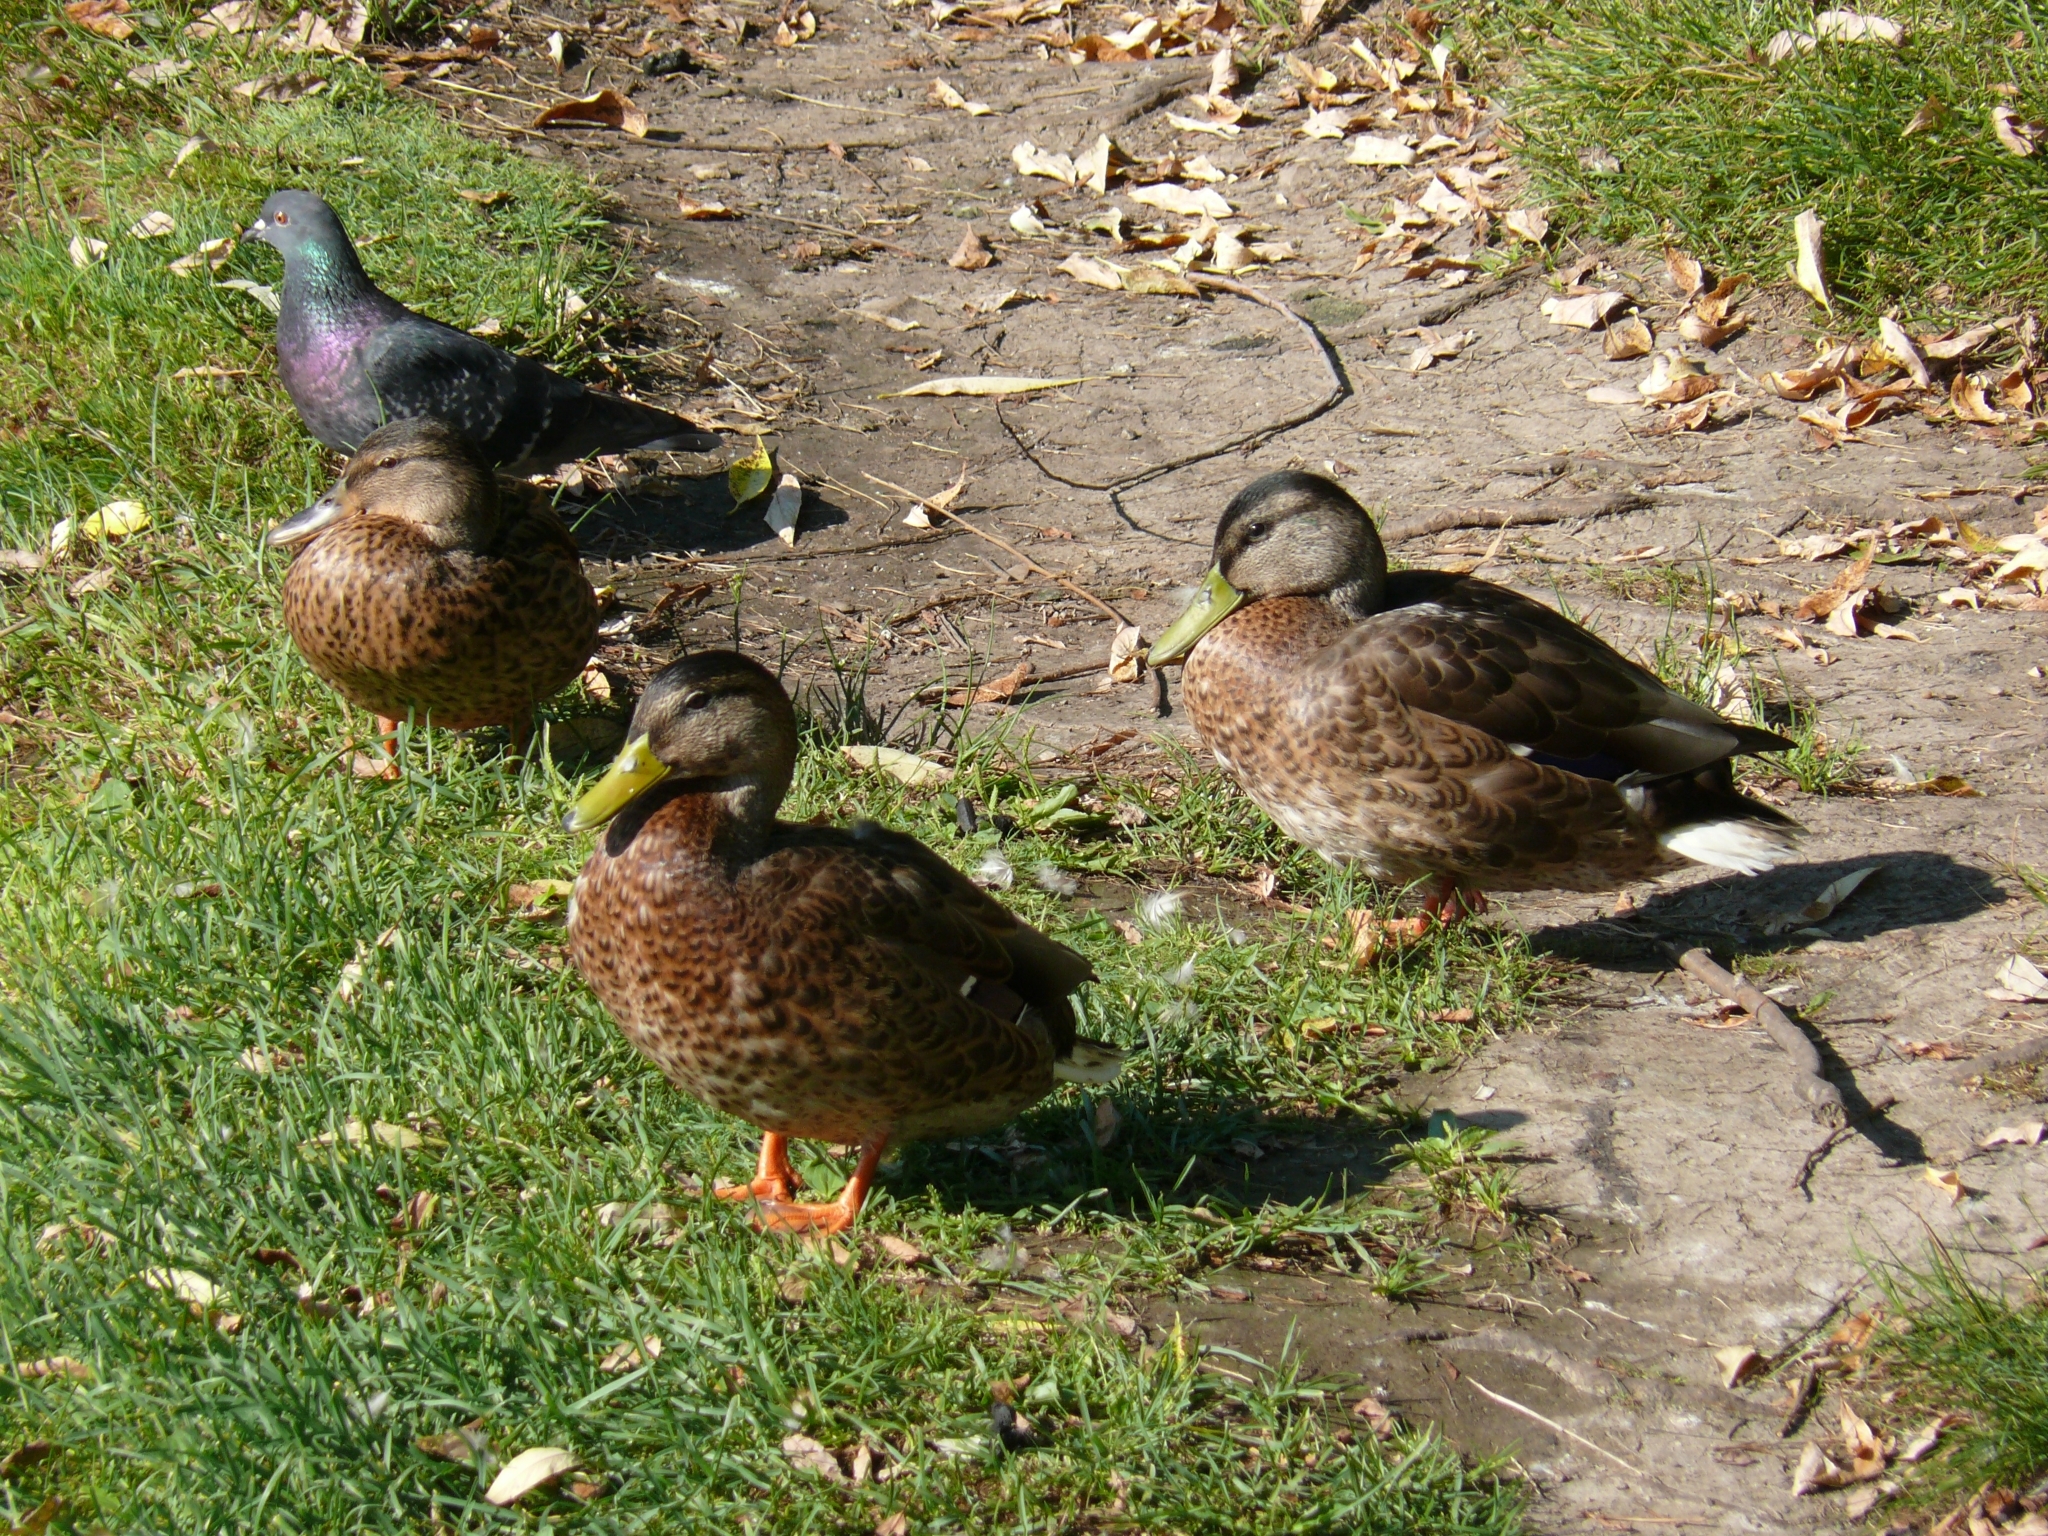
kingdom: Animalia
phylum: Chordata
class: Aves
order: Anseriformes
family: Anatidae
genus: Anas
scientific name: Anas platyrhynchos
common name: Mallard
